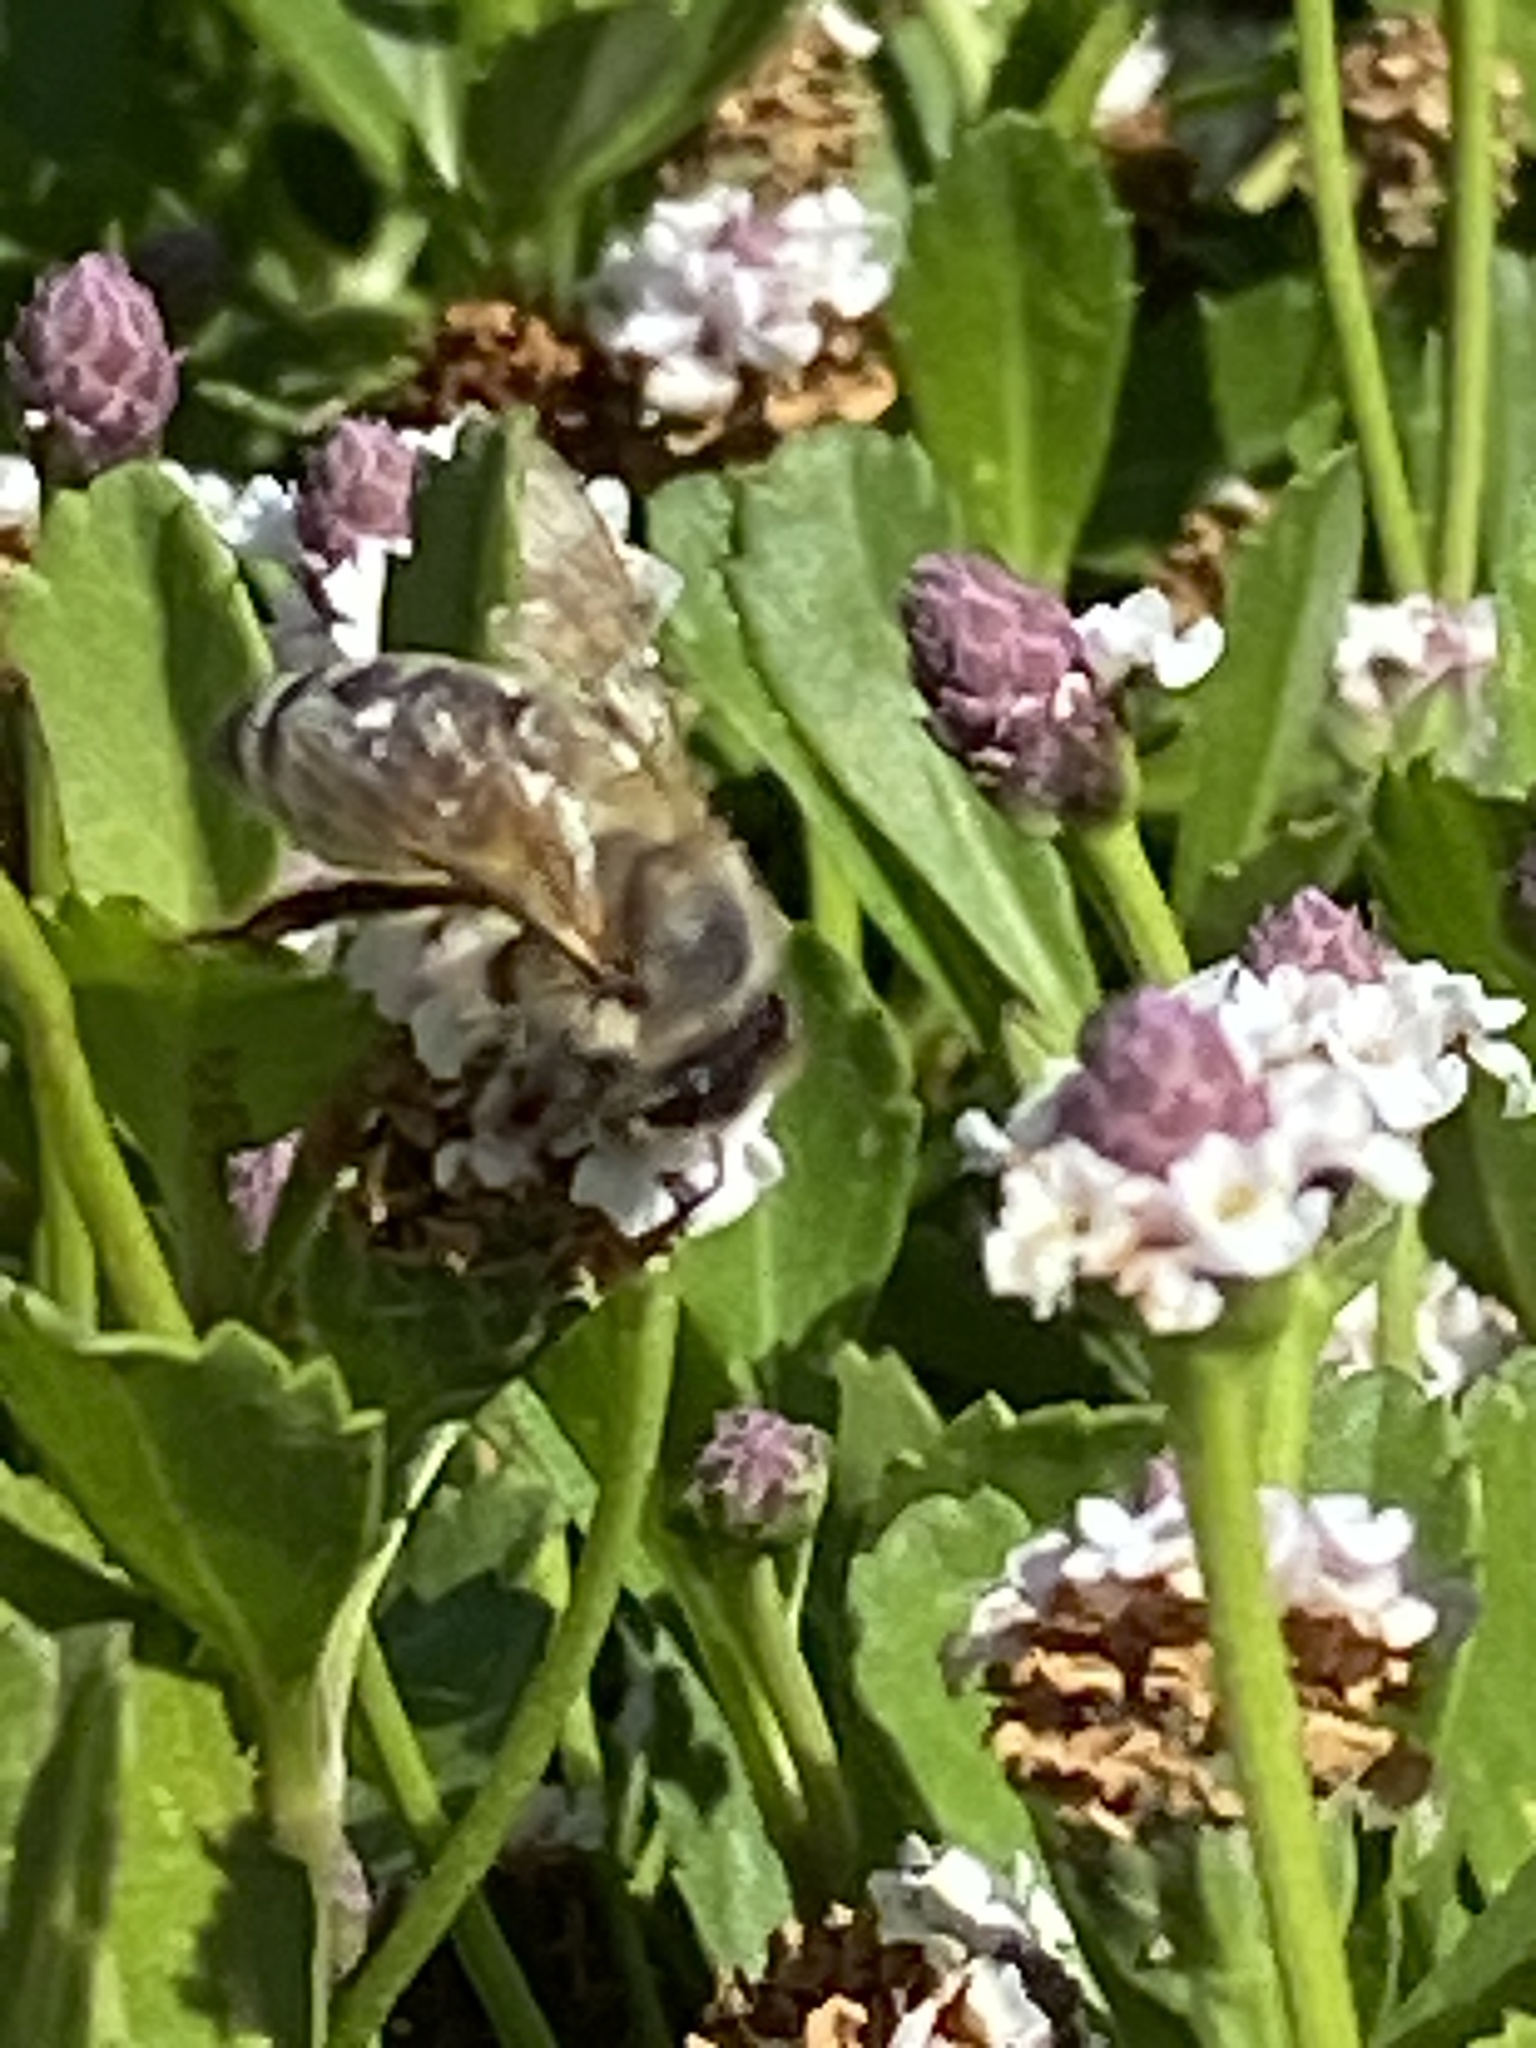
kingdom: Animalia
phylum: Arthropoda
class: Insecta
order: Hymenoptera
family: Apidae
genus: Apis
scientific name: Apis mellifera
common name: Honey bee
